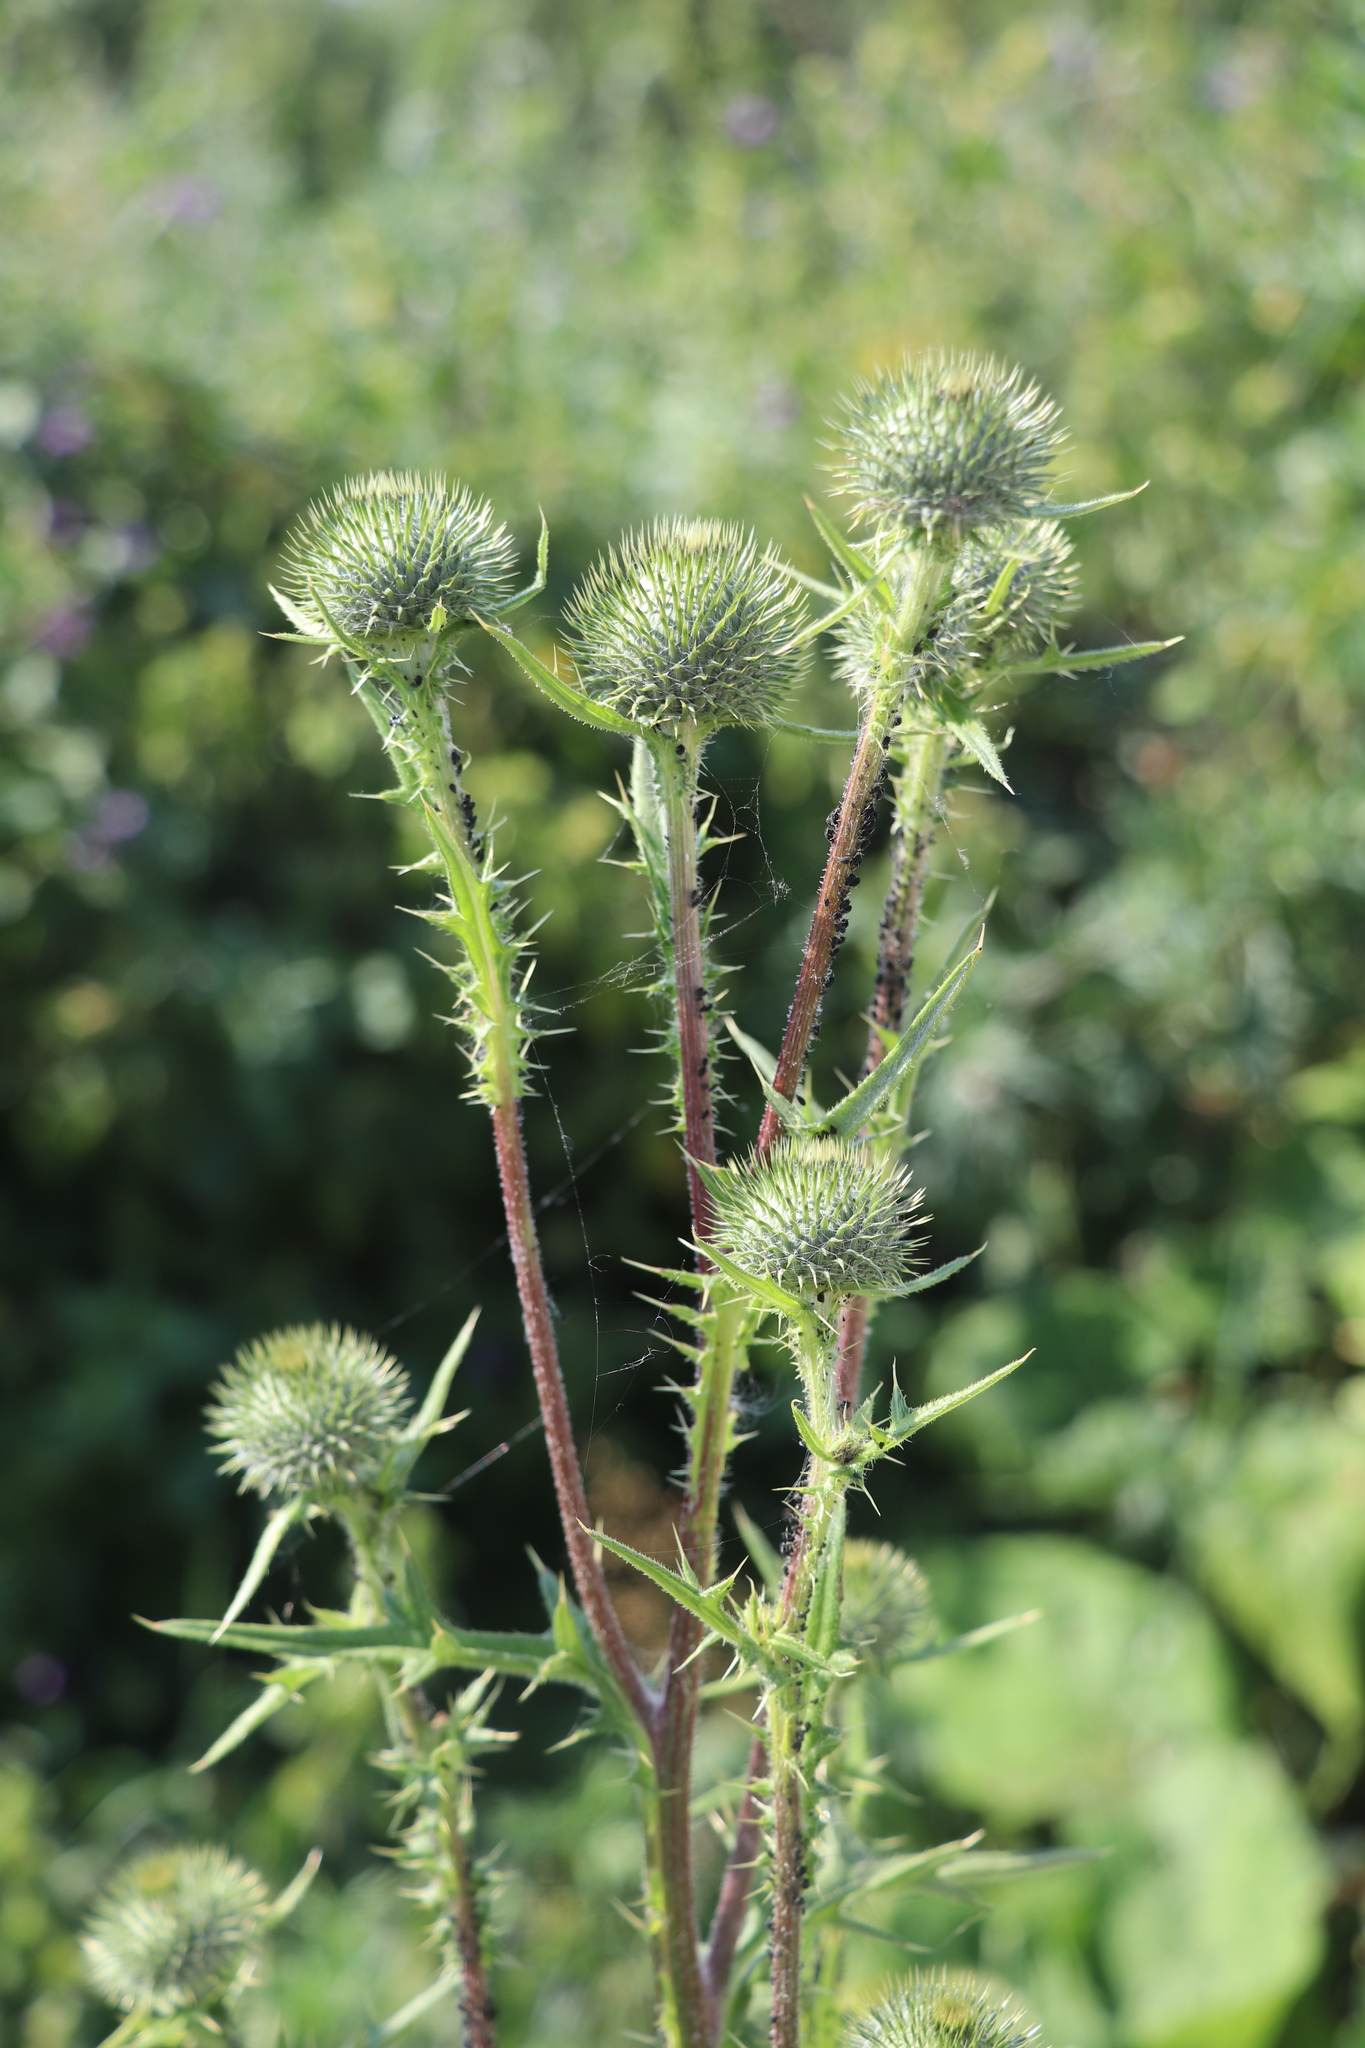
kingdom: Plantae
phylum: Tracheophyta
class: Magnoliopsida
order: Asterales
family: Asteraceae
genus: Cirsium
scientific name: Cirsium vulgare
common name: Bull thistle
